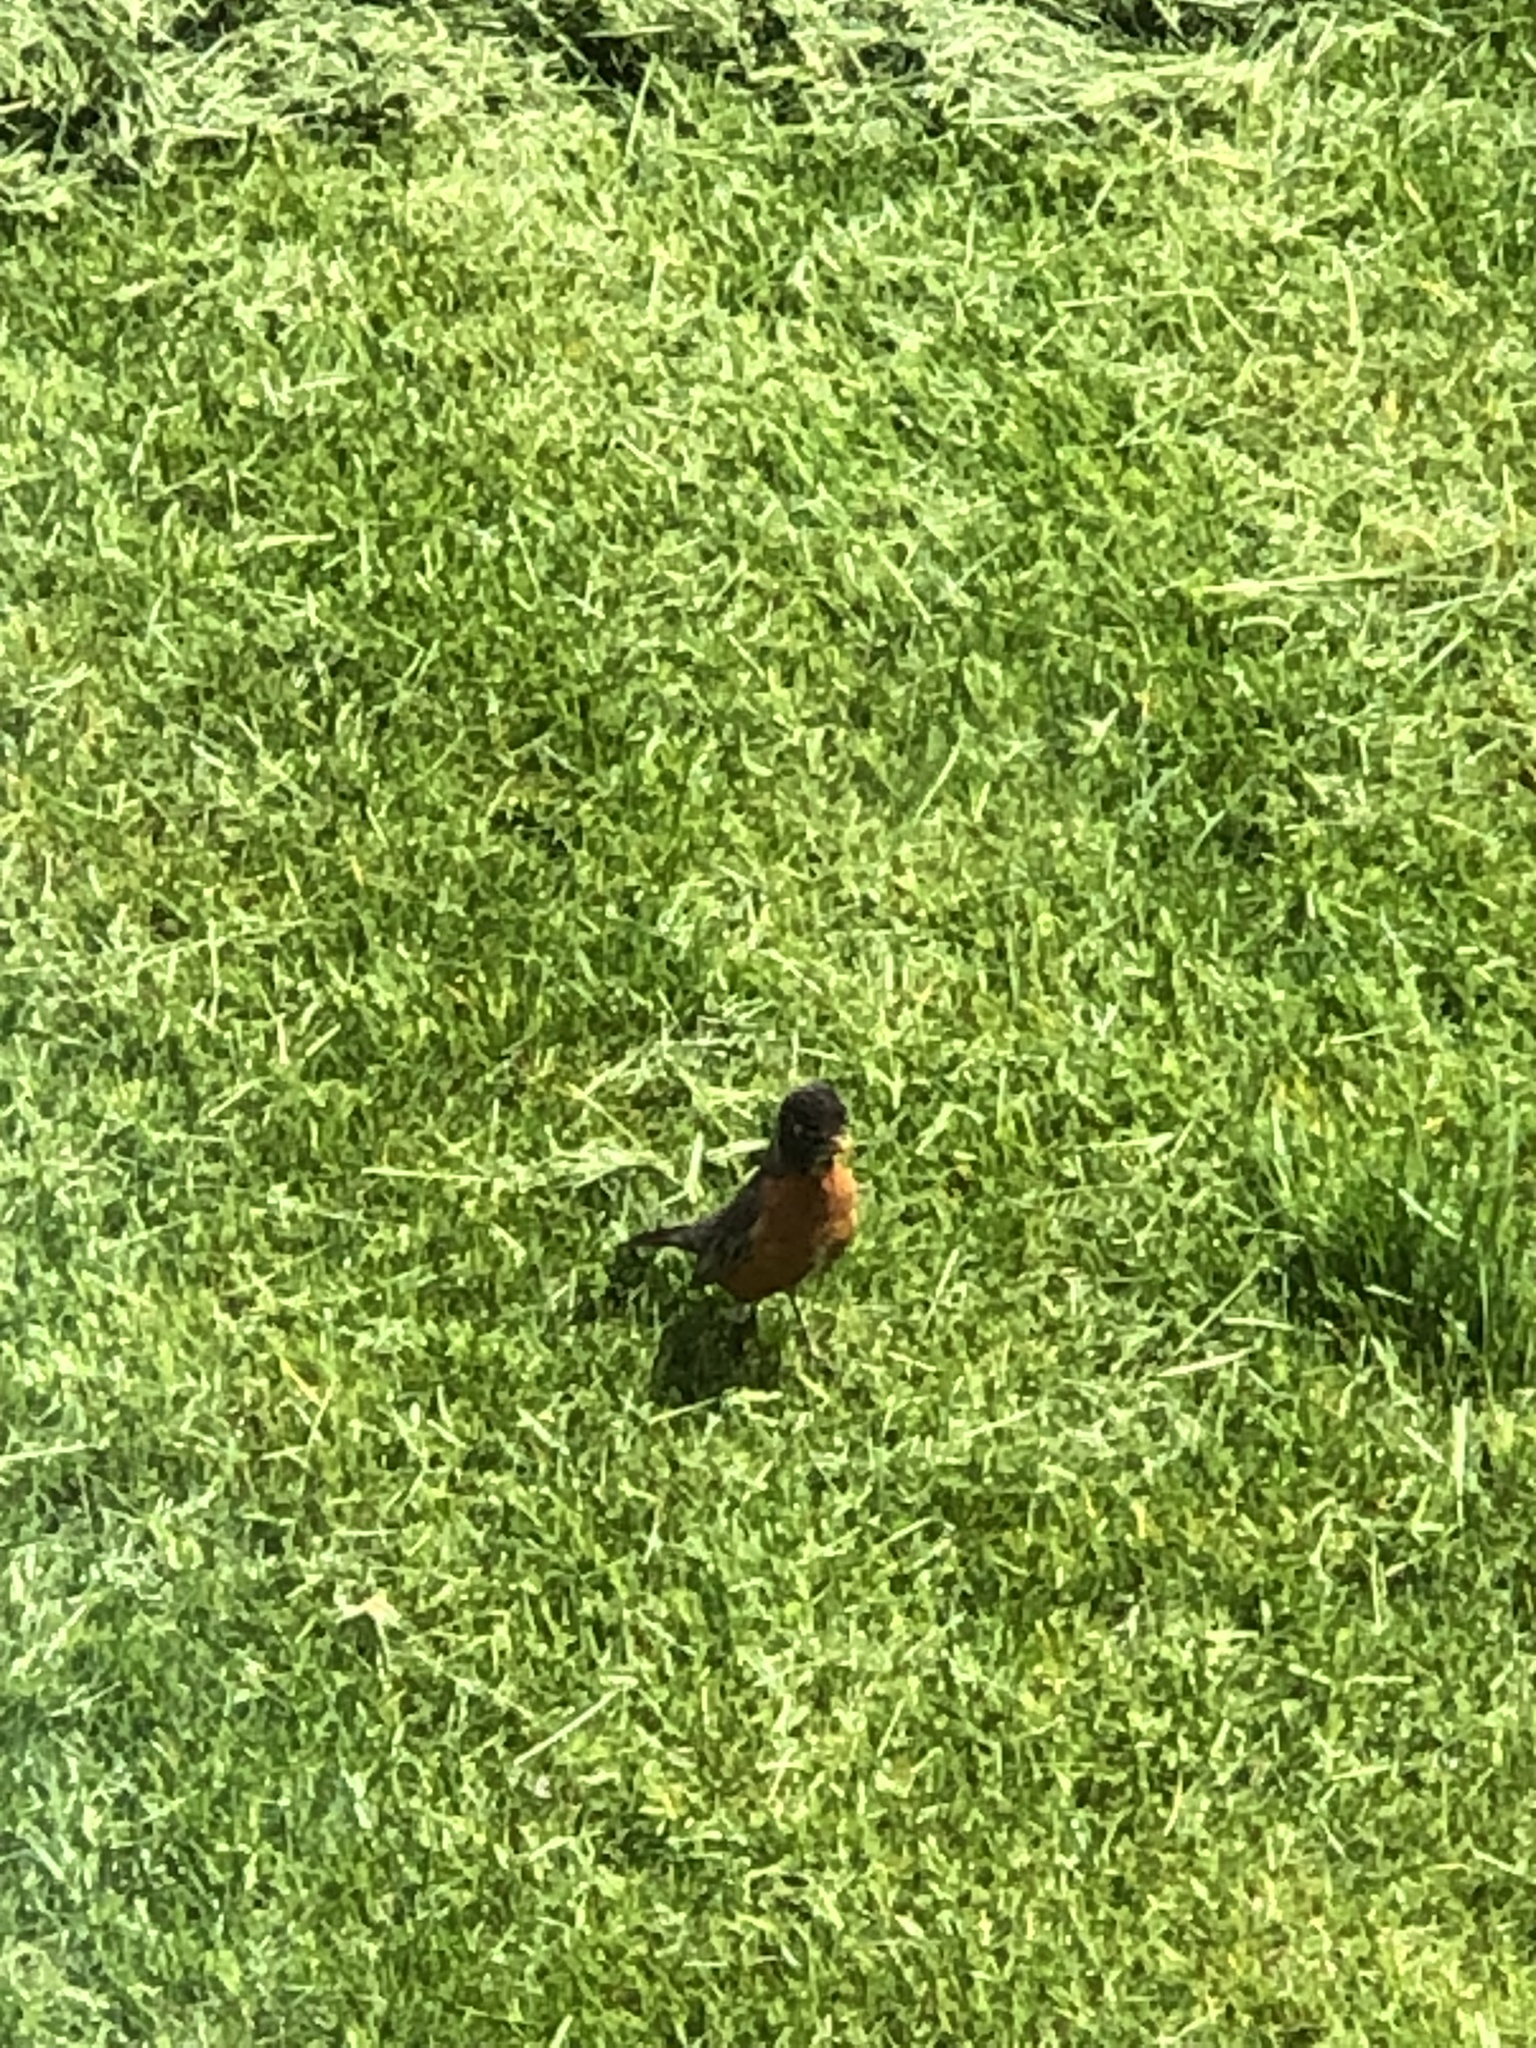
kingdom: Animalia
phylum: Chordata
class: Aves
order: Passeriformes
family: Turdidae
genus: Turdus
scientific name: Turdus migratorius
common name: American robin
